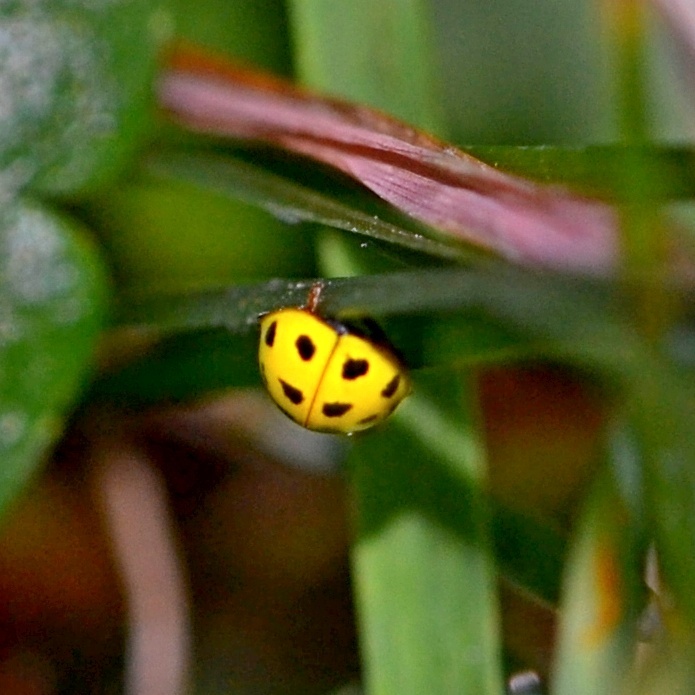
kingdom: Animalia
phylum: Arthropoda
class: Insecta
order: Coleoptera
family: Coccinellidae
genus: Psyllobora
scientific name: Psyllobora vigintiduopunctata
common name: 22-spot ladybird
